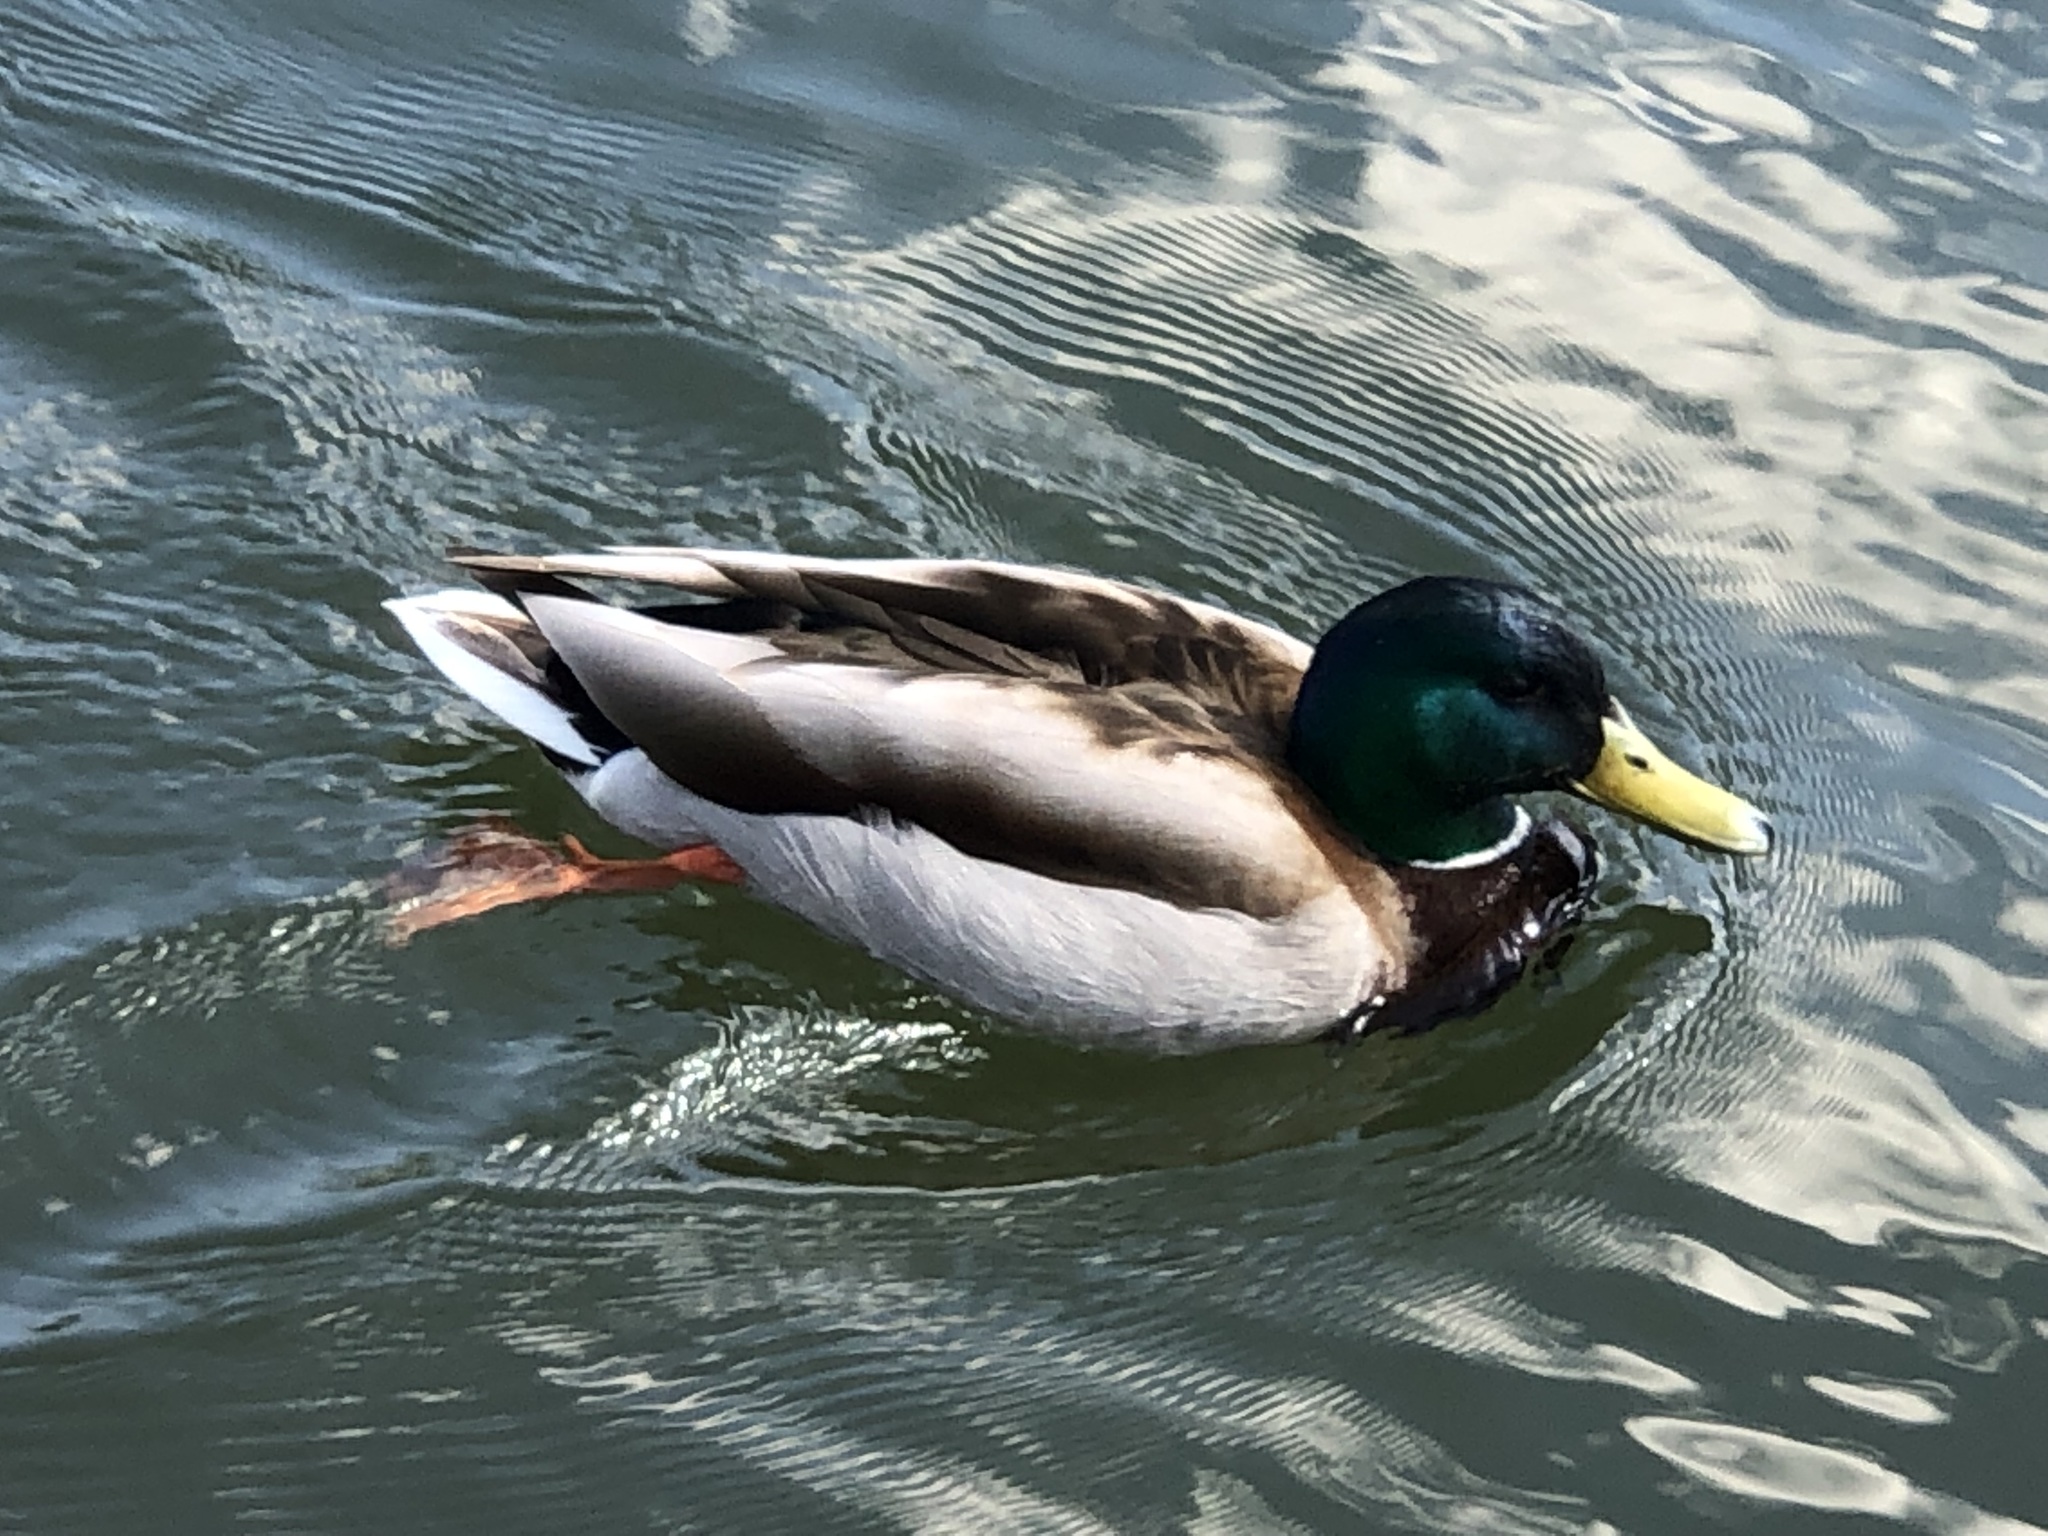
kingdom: Animalia
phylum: Chordata
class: Aves
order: Anseriformes
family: Anatidae
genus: Anas
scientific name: Anas platyrhynchos
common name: Mallard
